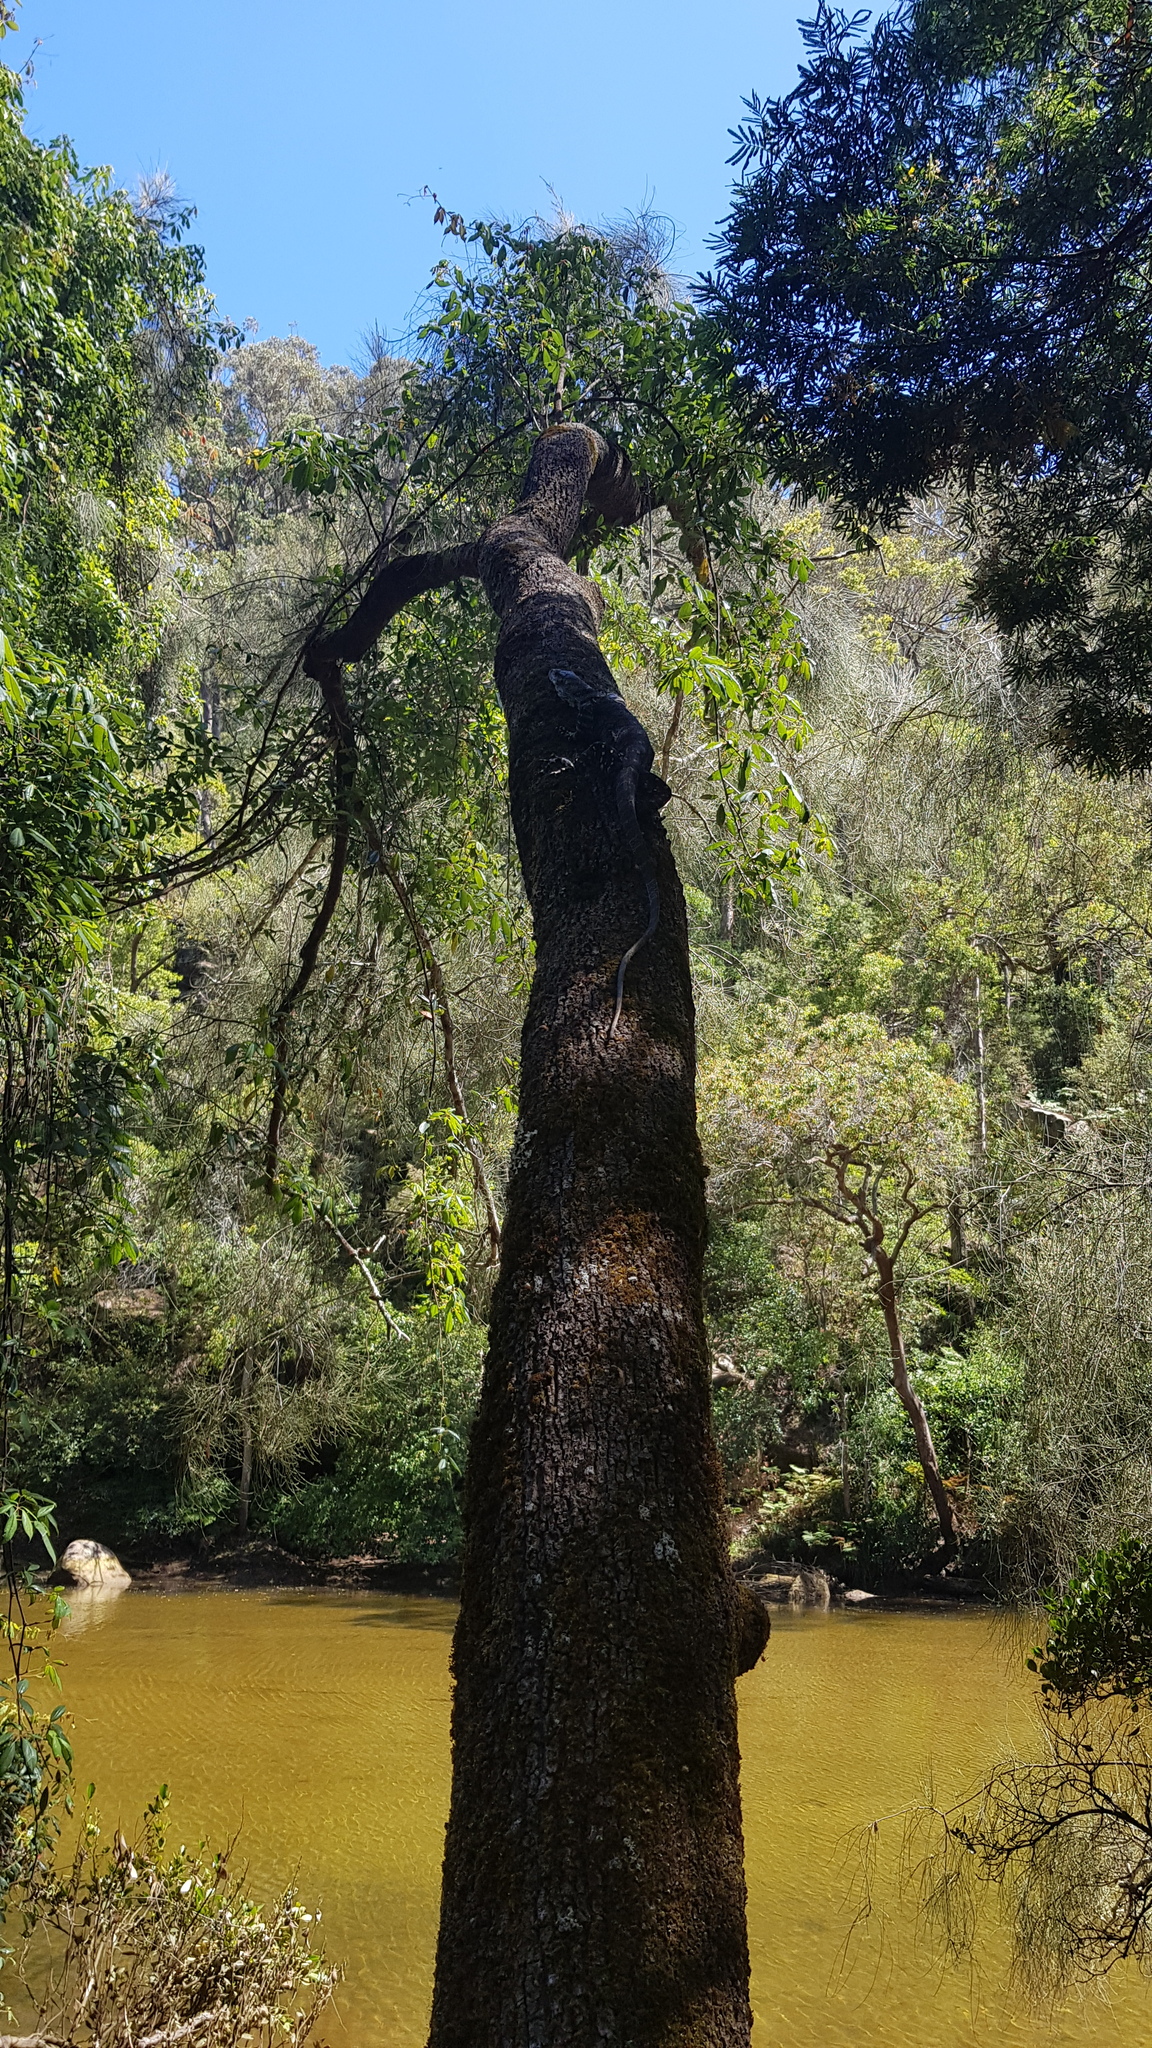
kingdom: Animalia
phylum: Chordata
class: Squamata
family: Varanidae
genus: Varanus
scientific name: Varanus varius
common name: Lace monitor
